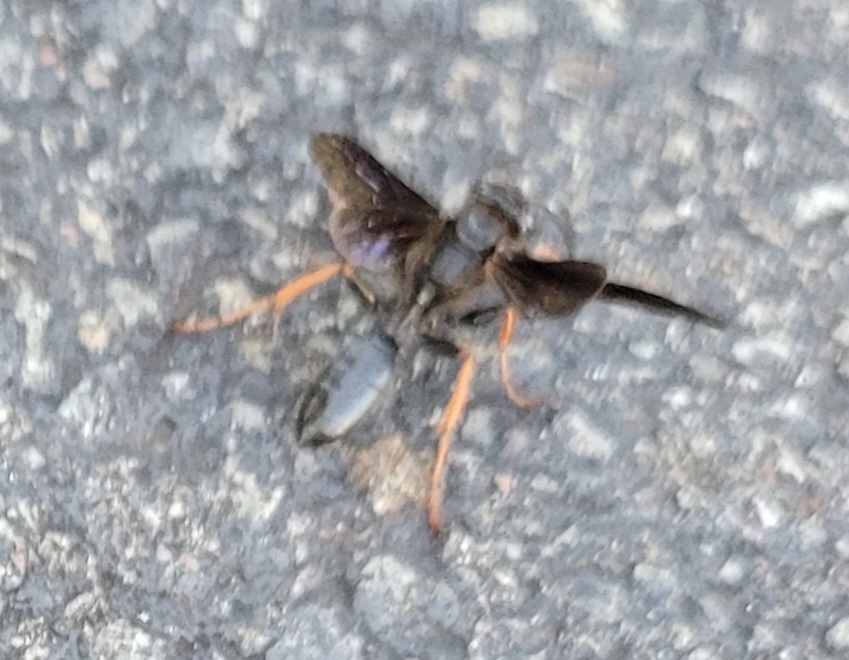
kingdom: Animalia
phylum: Arthropoda
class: Insecta
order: Hymenoptera
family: Sphecidae
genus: Sphex
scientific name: Sphex nudus
